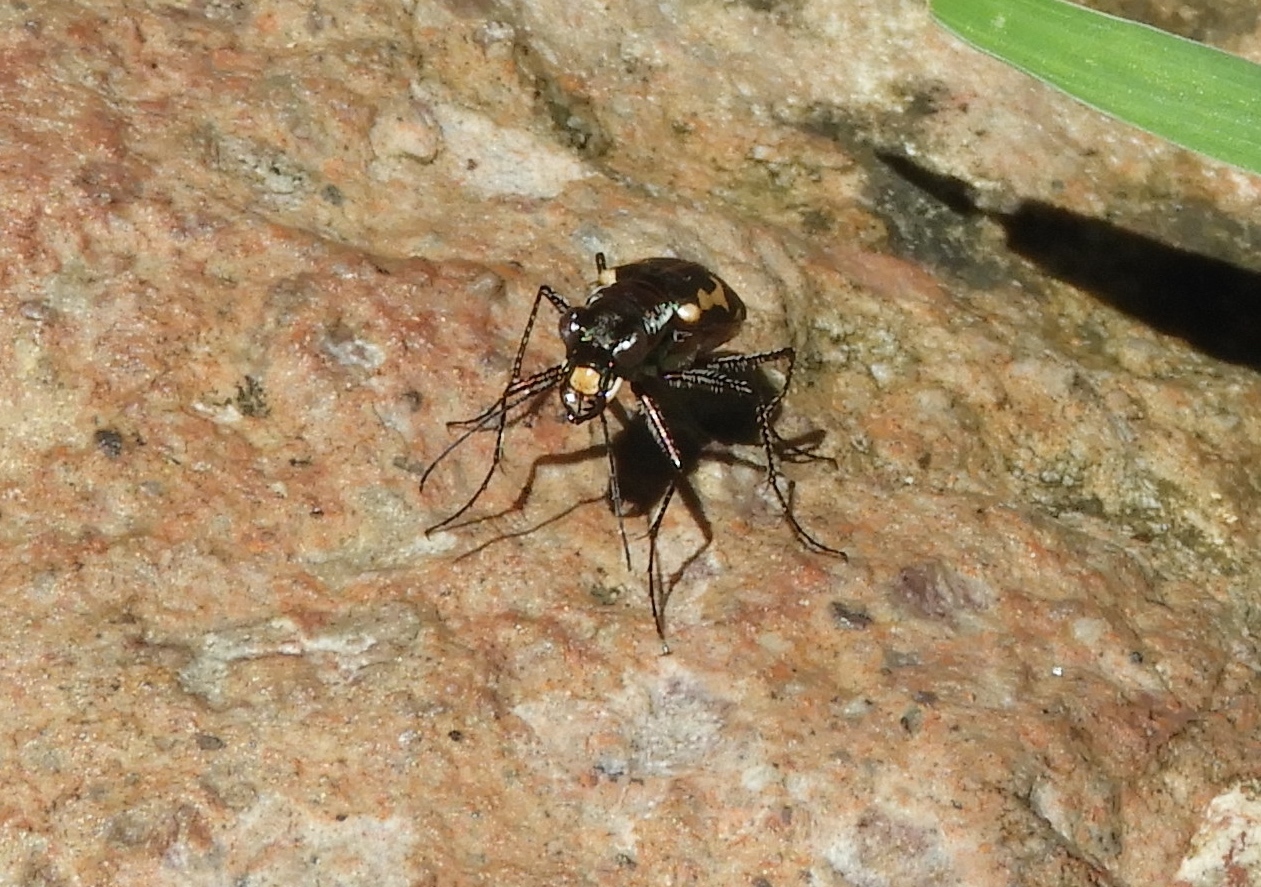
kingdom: Animalia
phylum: Arthropoda
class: Insecta
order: Coleoptera
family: Carabidae
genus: Cicindela
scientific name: Cicindela hydrophoba
